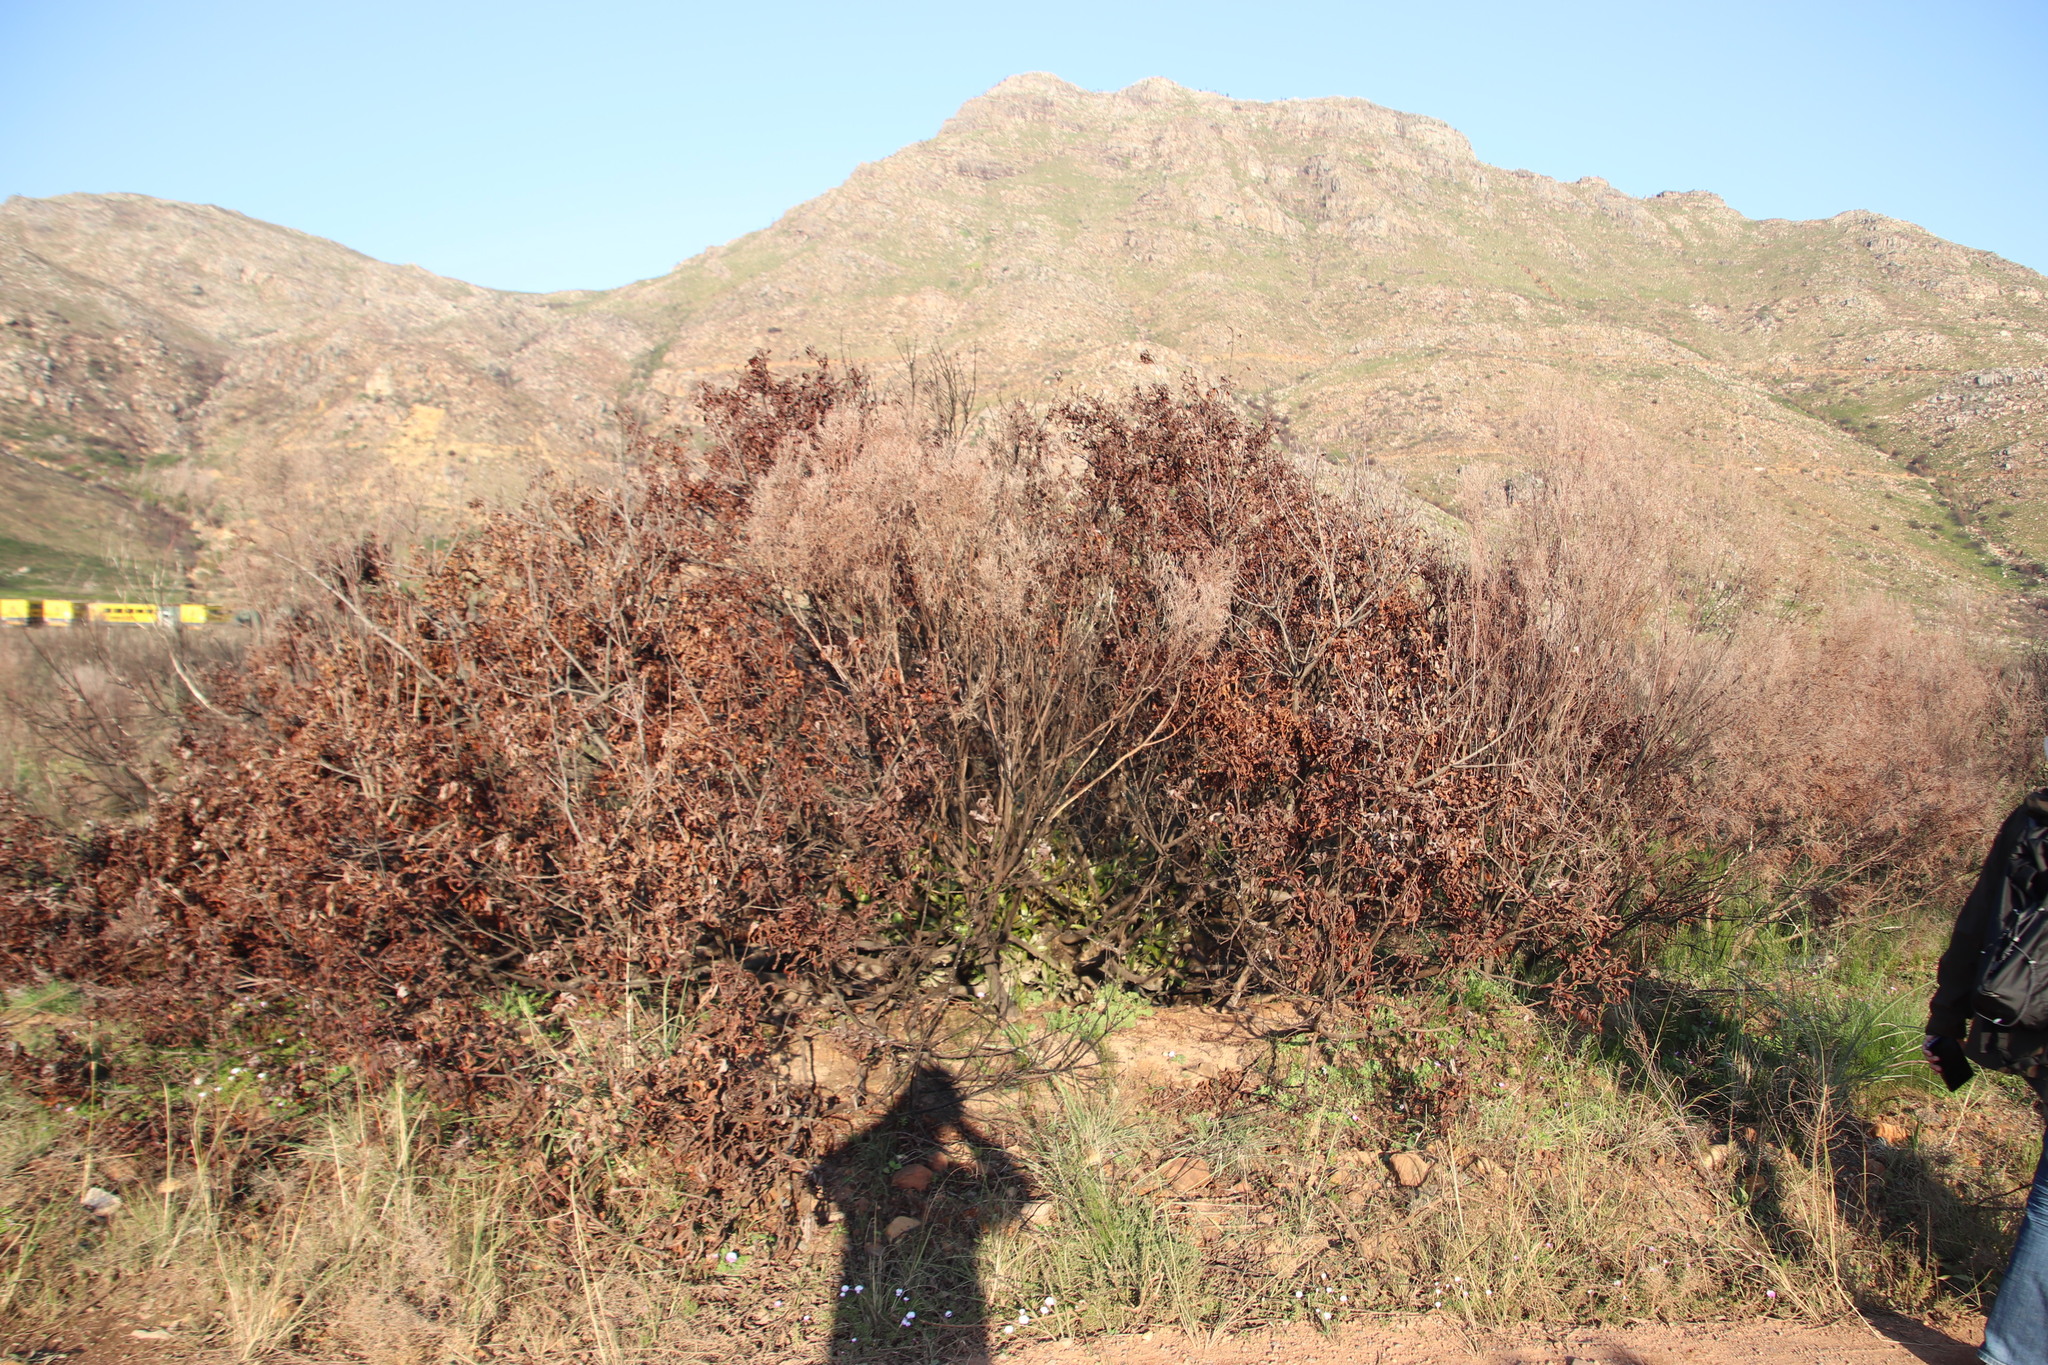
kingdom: Plantae
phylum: Tracheophyta
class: Magnoliopsida
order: Proteales
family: Proteaceae
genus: Brabejum
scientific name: Brabejum stellatifolium
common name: Wild almond
